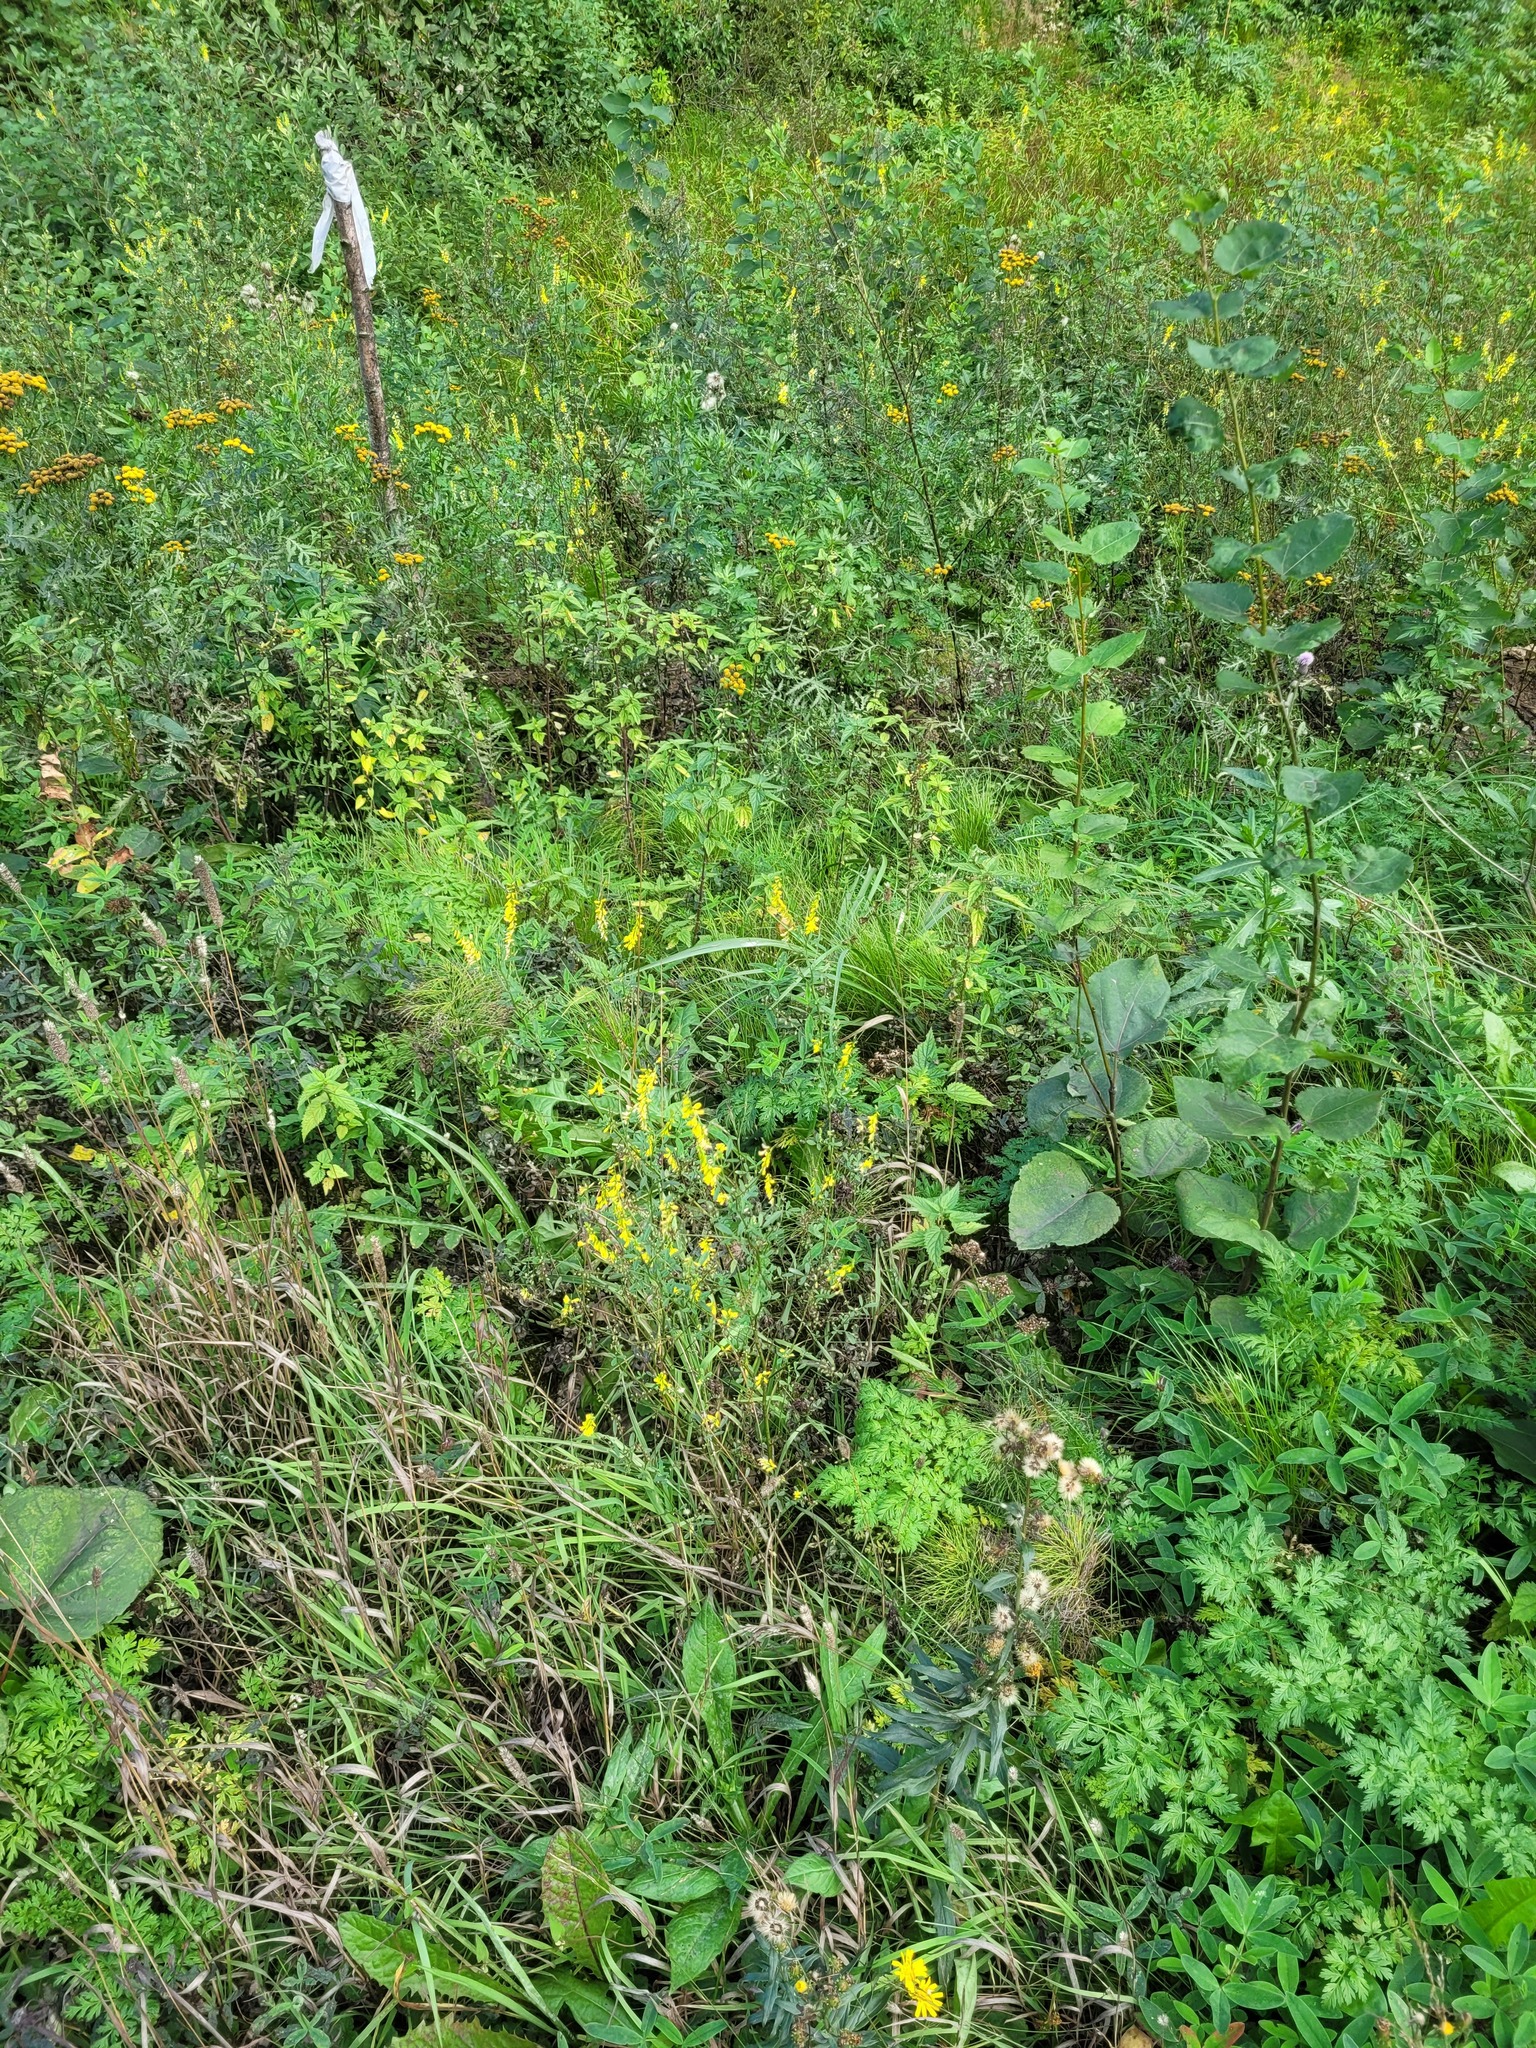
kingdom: Plantae
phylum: Tracheophyta
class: Magnoliopsida
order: Fabales
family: Fabaceae
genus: Melilotus
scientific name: Melilotus officinalis
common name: Sweetclover
